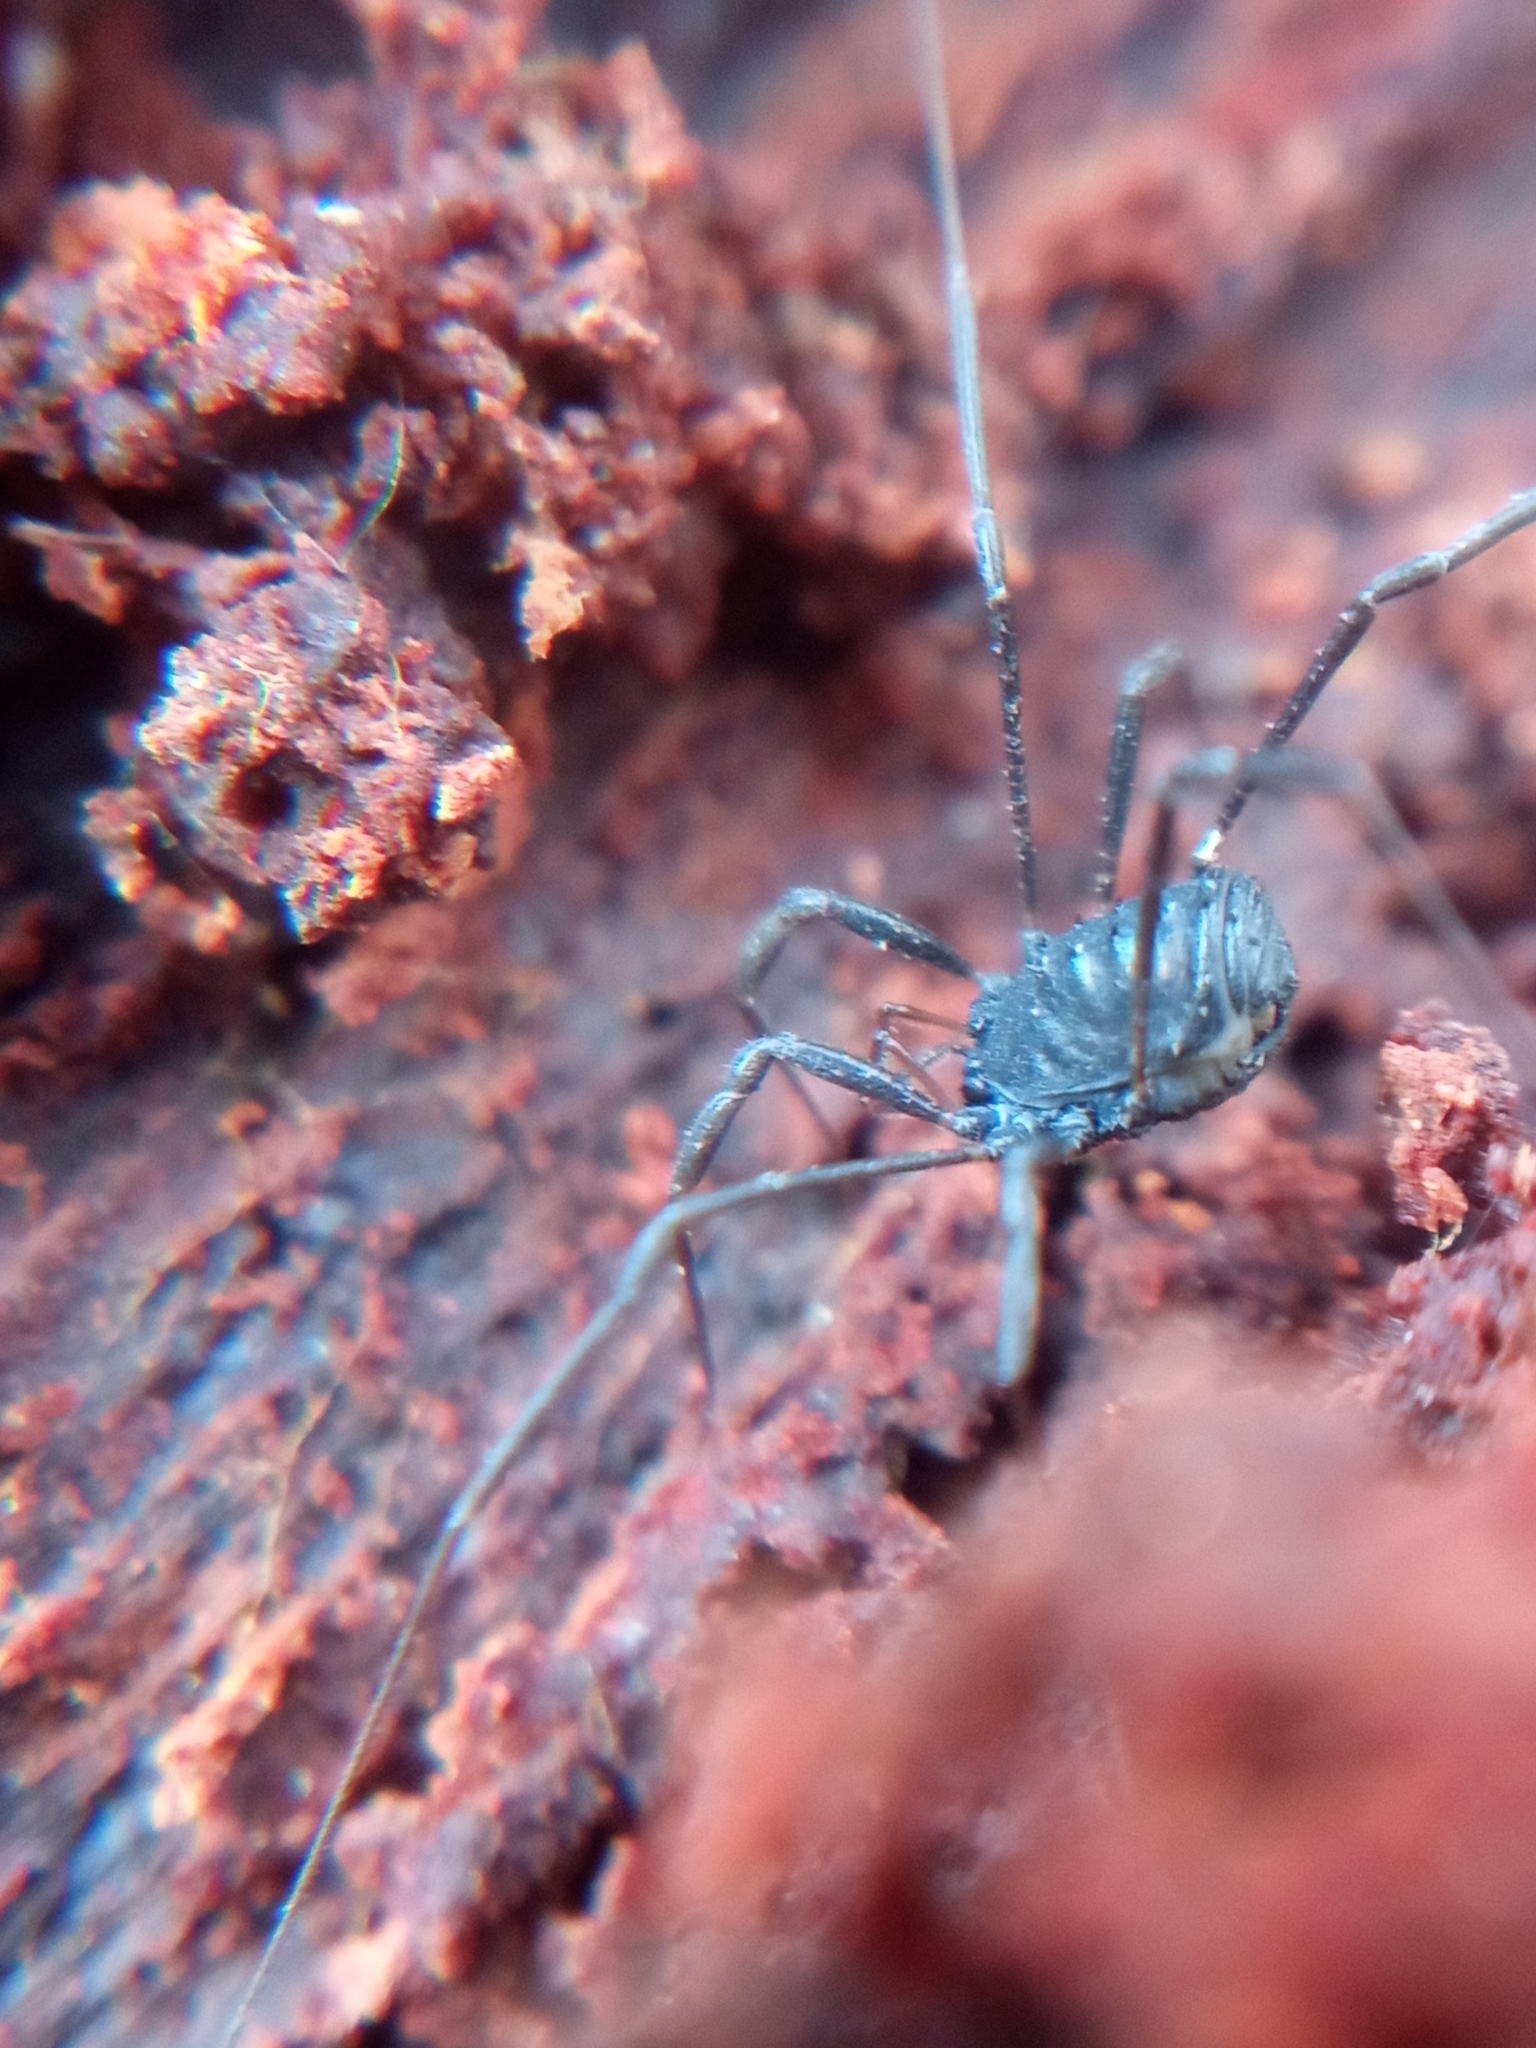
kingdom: Animalia
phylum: Arthropoda
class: Arachnida
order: Opiliones
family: Nemastomatidae
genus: Histricostoma
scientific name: Histricostoma dentipalpe
